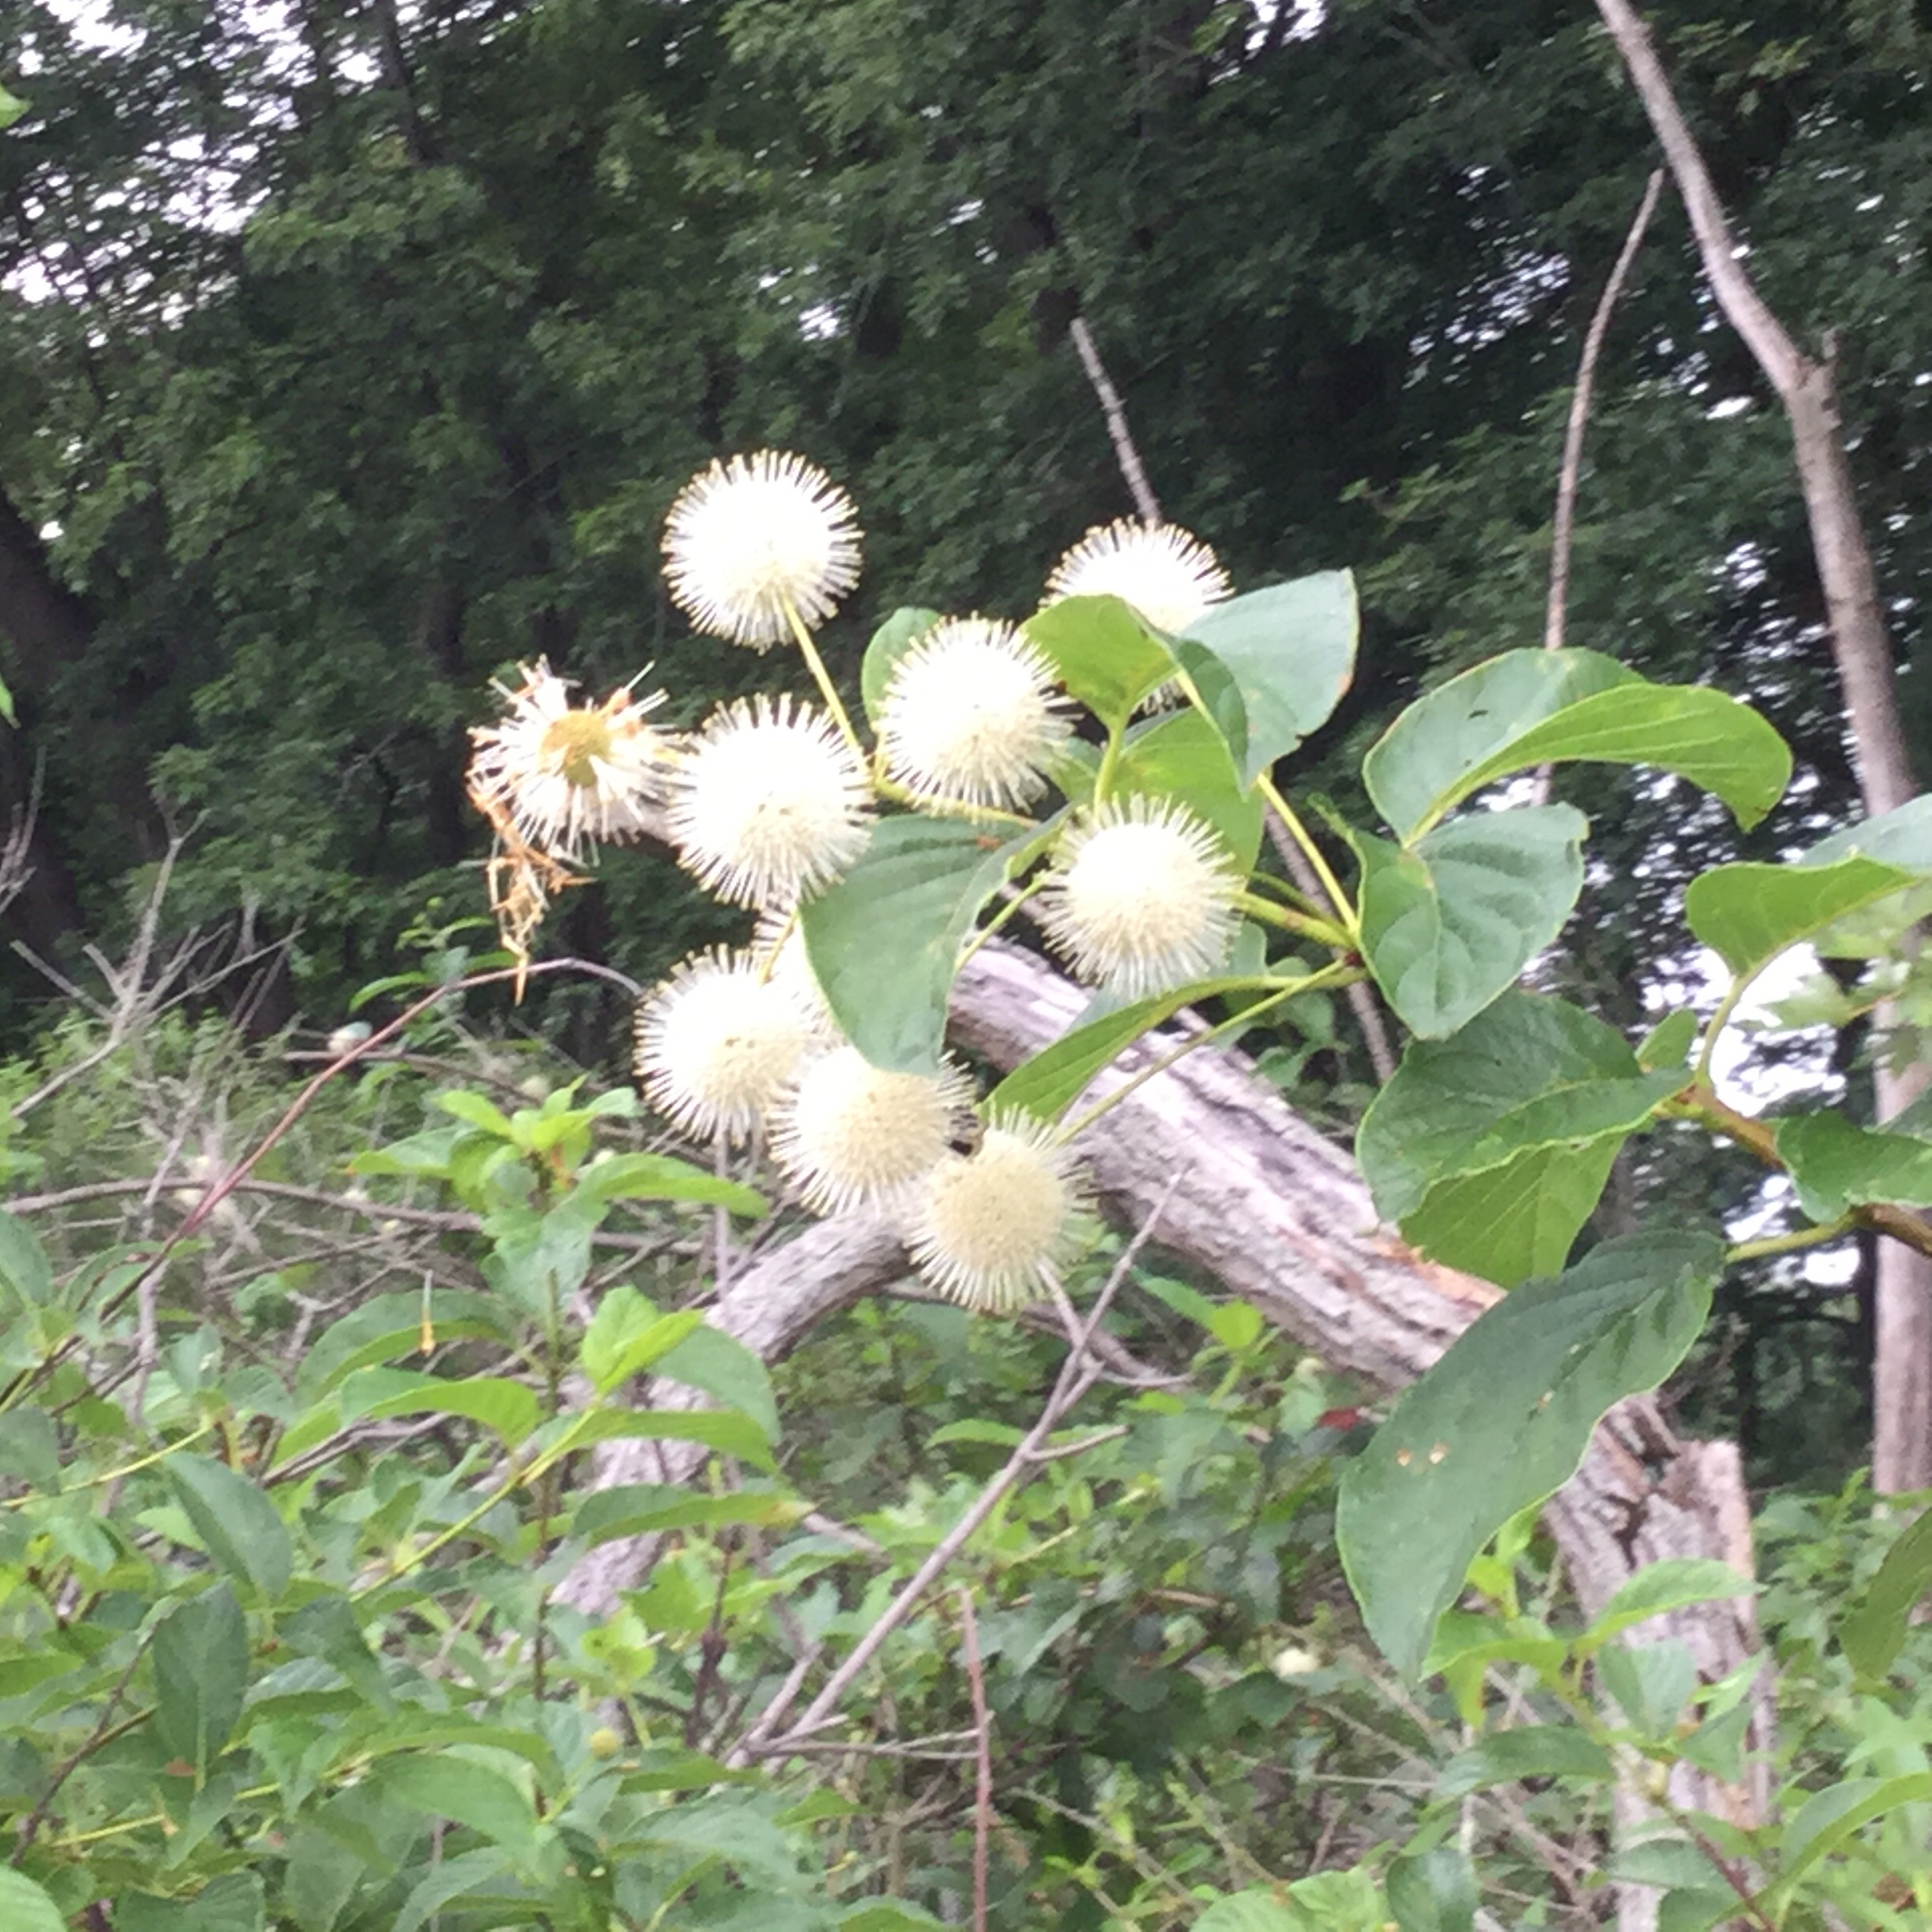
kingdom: Plantae
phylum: Tracheophyta
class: Magnoliopsida
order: Gentianales
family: Rubiaceae
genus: Cephalanthus
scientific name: Cephalanthus occidentalis
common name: Button-willow
